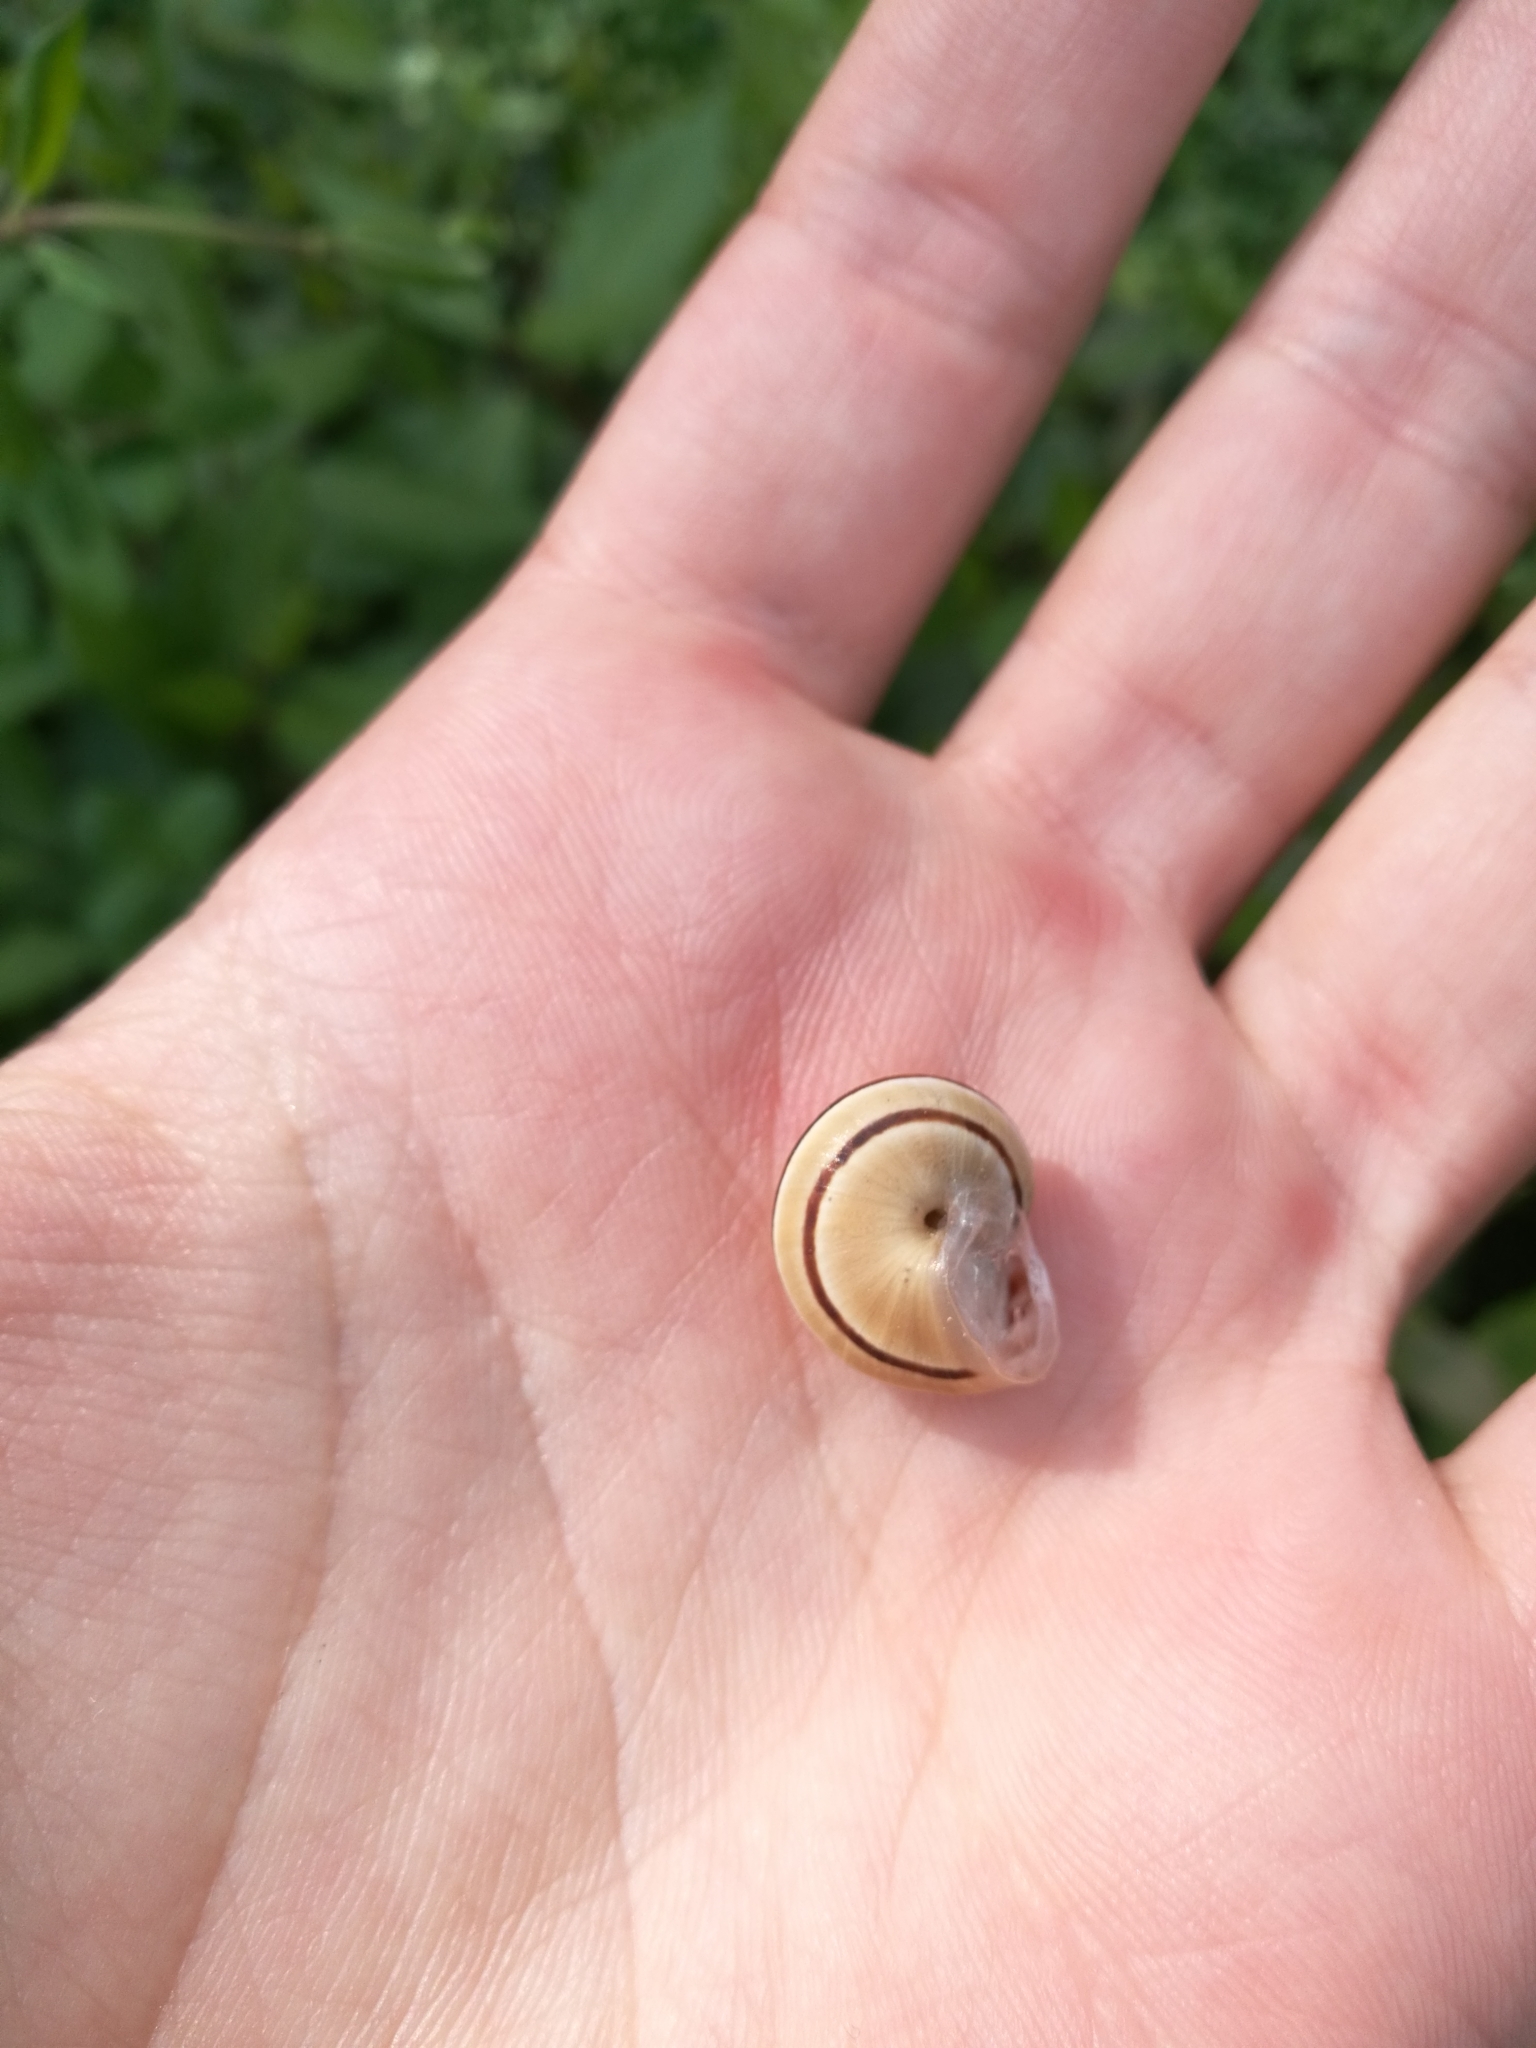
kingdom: Animalia
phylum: Mollusca
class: Gastropoda
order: Stylommatophora
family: Helicidae
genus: Pseudotachea
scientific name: Pseudotachea splendida
